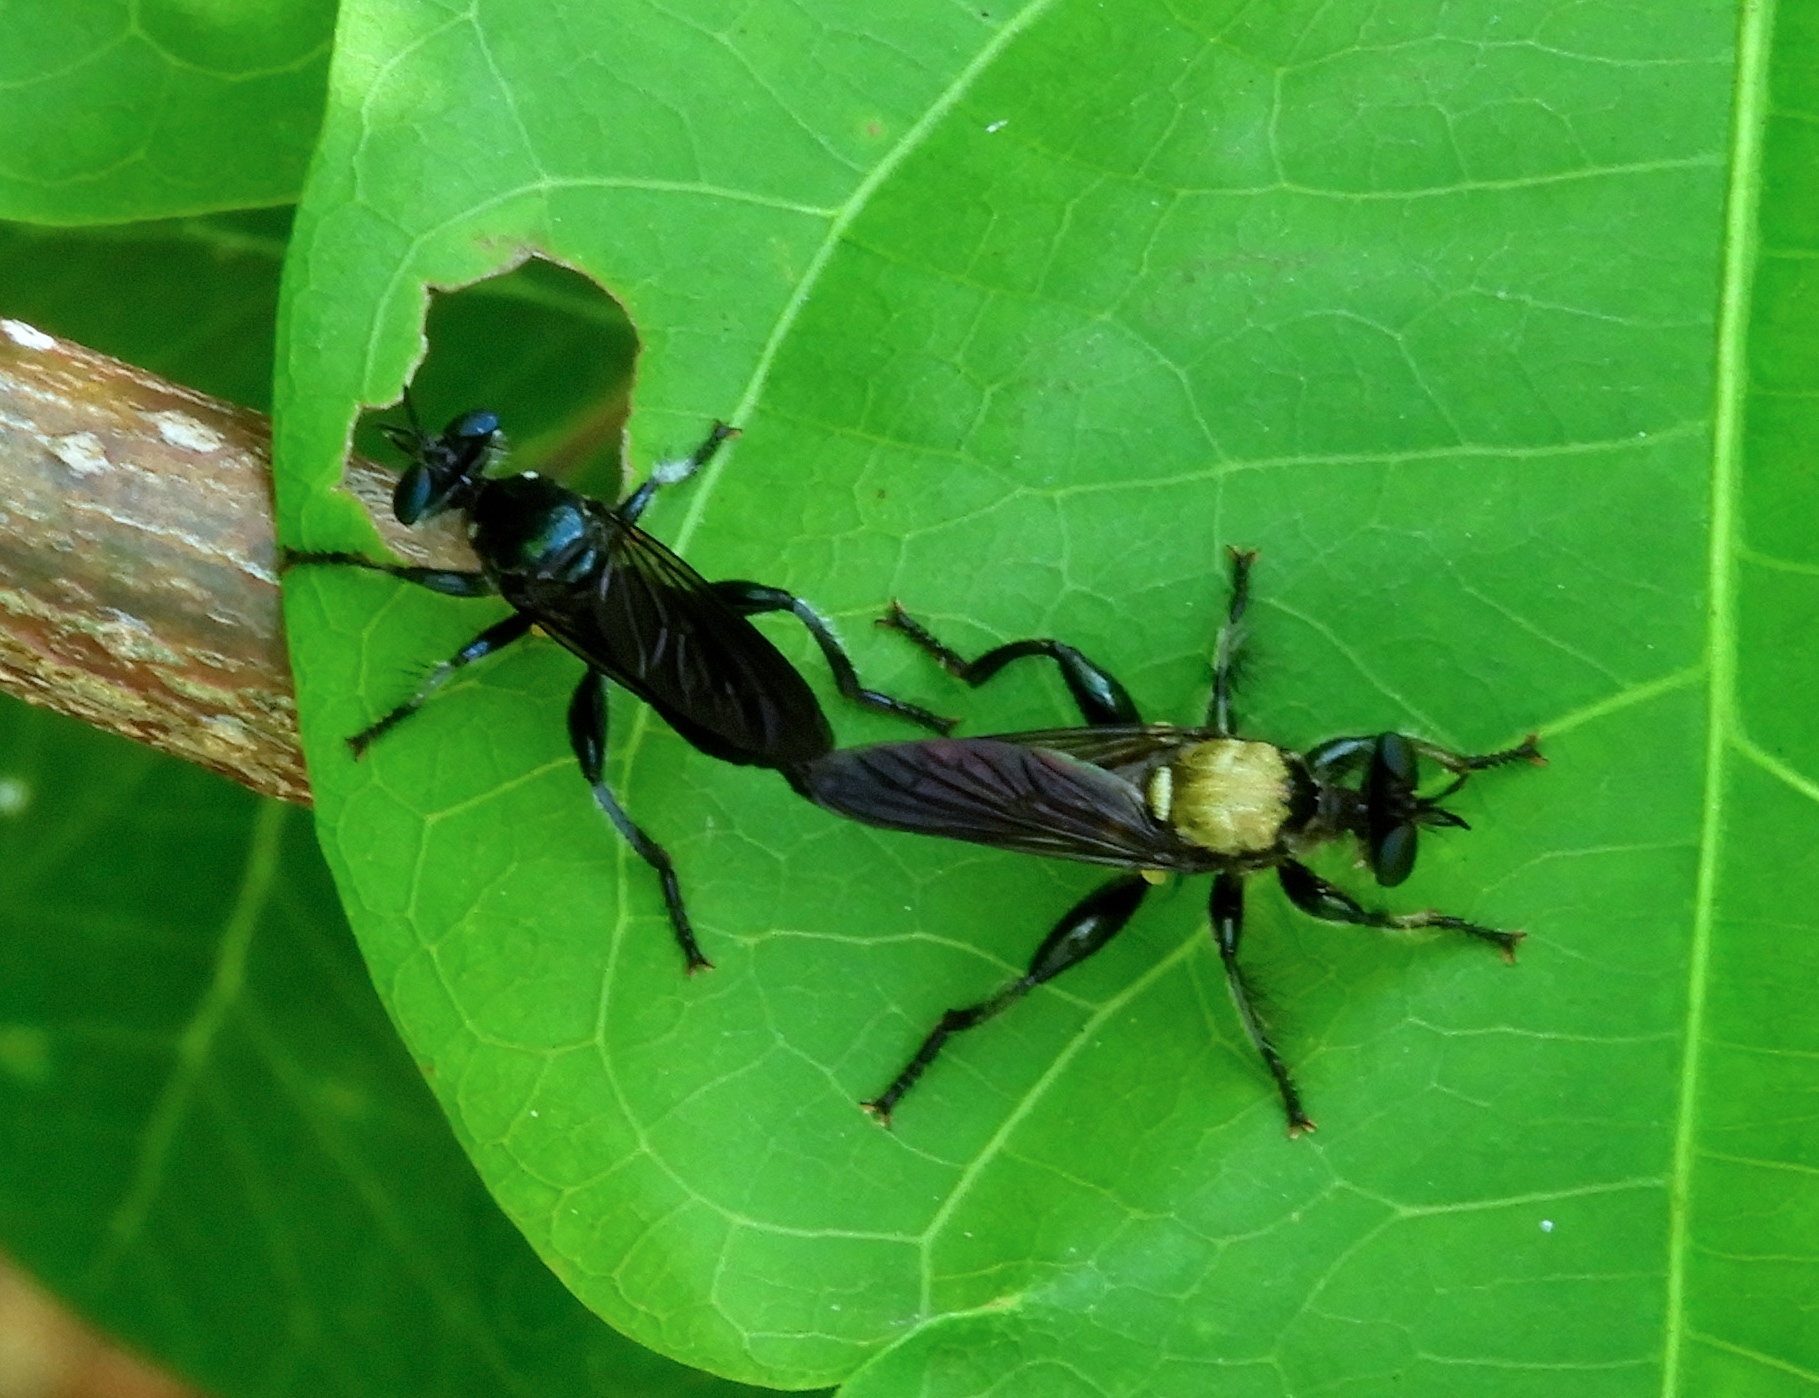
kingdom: Animalia
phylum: Arthropoda
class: Insecta
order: Diptera
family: Asilidae
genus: Lampria
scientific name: Lampria aurifex
